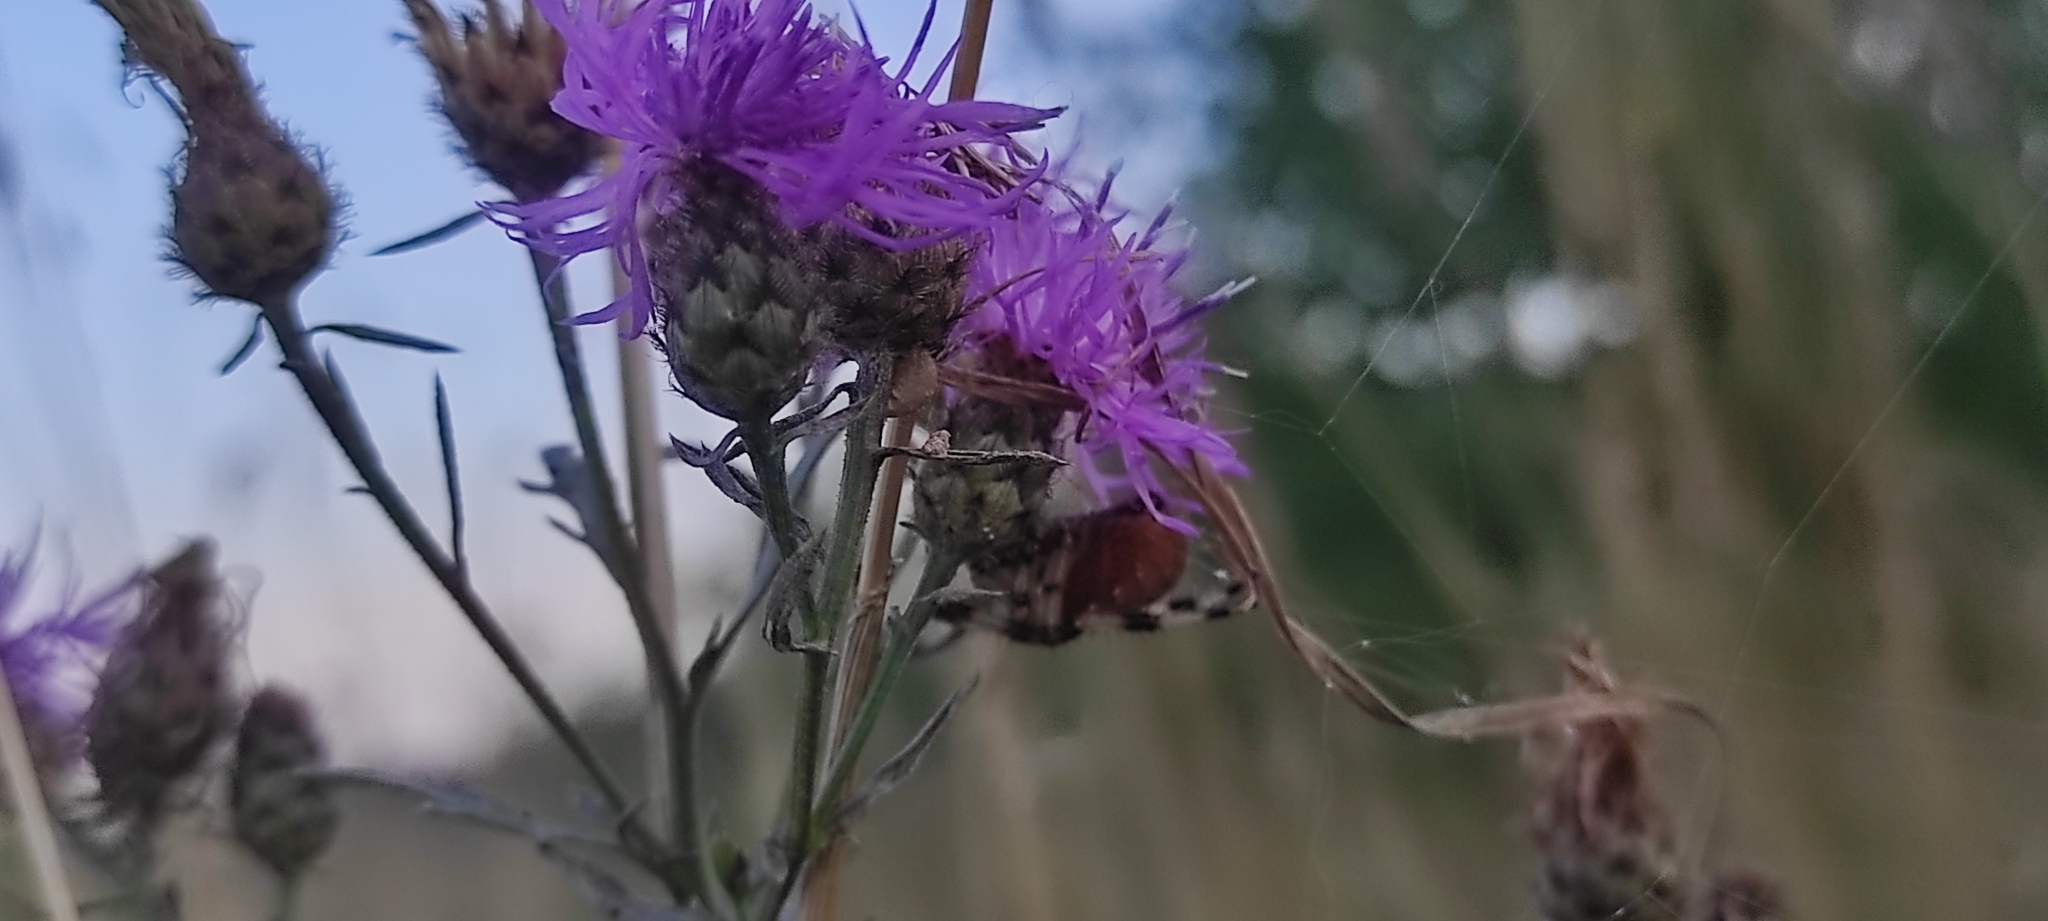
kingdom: Animalia
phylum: Arthropoda
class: Arachnida
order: Araneae
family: Araneidae
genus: Araneus
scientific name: Araneus quadratus
